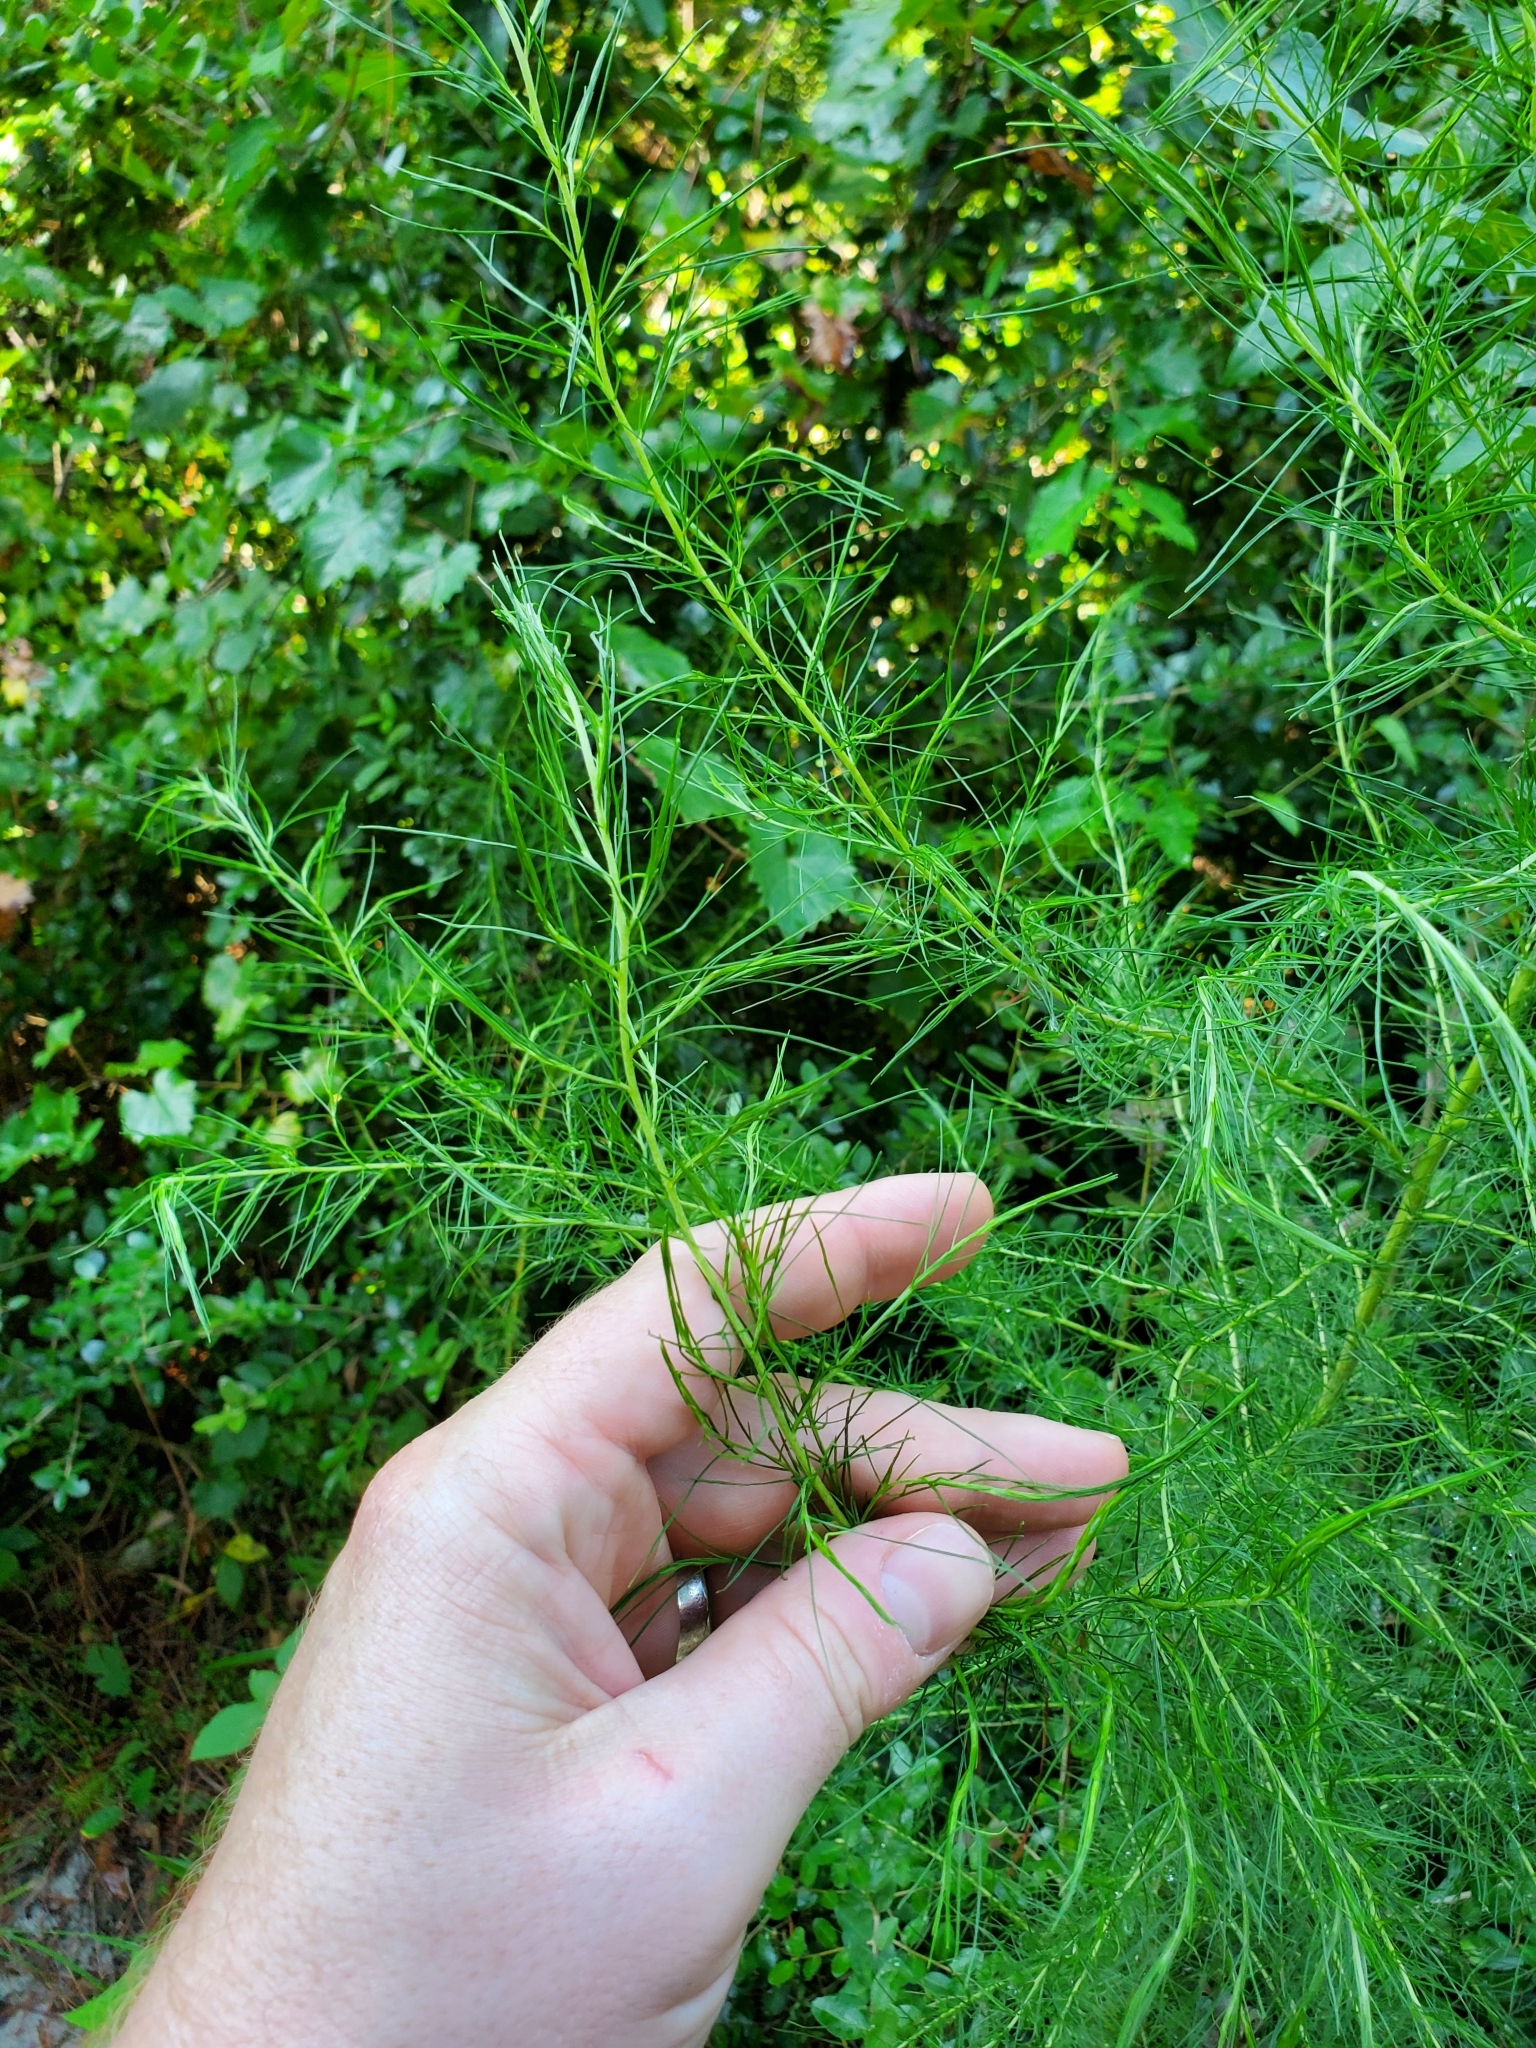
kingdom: Plantae
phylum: Tracheophyta
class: Magnoliopsida
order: Asterales
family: Asteraceae
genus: Eupatorium
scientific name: Eupatorium capillifolium
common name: Dog-fennel
